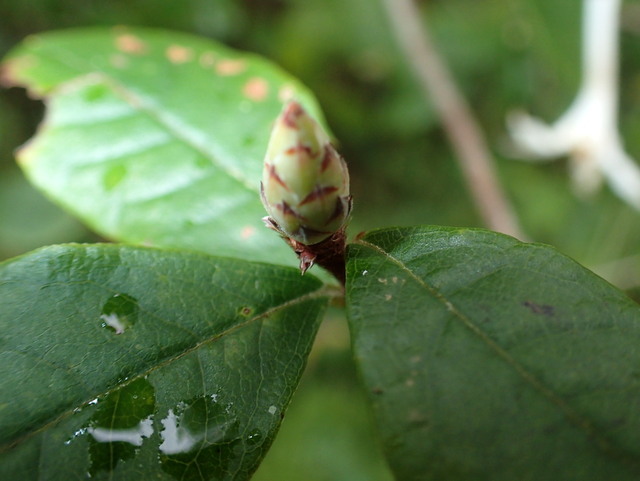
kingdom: Plantae
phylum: Tracheophyta
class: Magnoliopsida
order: Ericales
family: Ericaceae
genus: Rhododendron
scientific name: Rhododendron serrulatum
